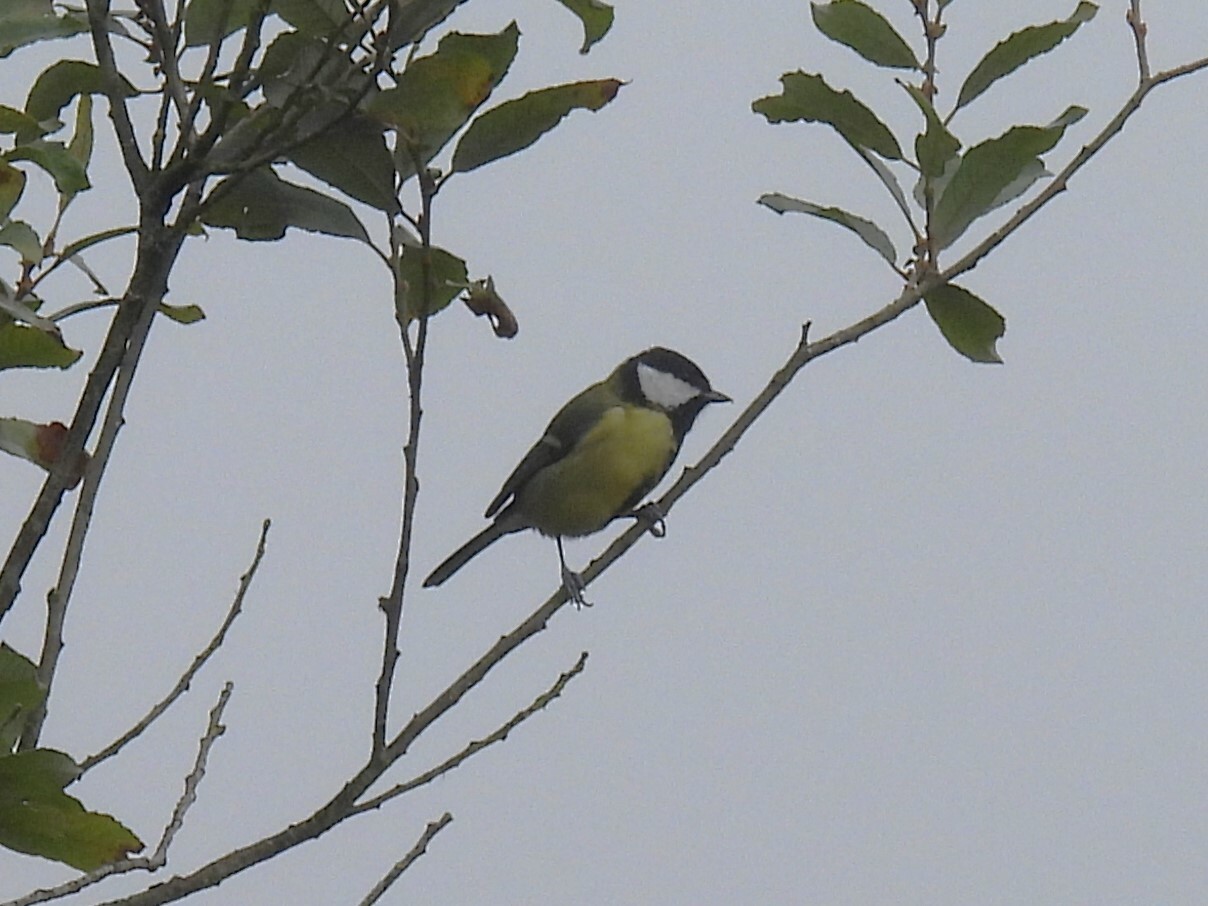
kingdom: Animalia
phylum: Chordata
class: Aves
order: Passeriformes
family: Paridae
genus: Parus
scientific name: Parus major
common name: Great tit
